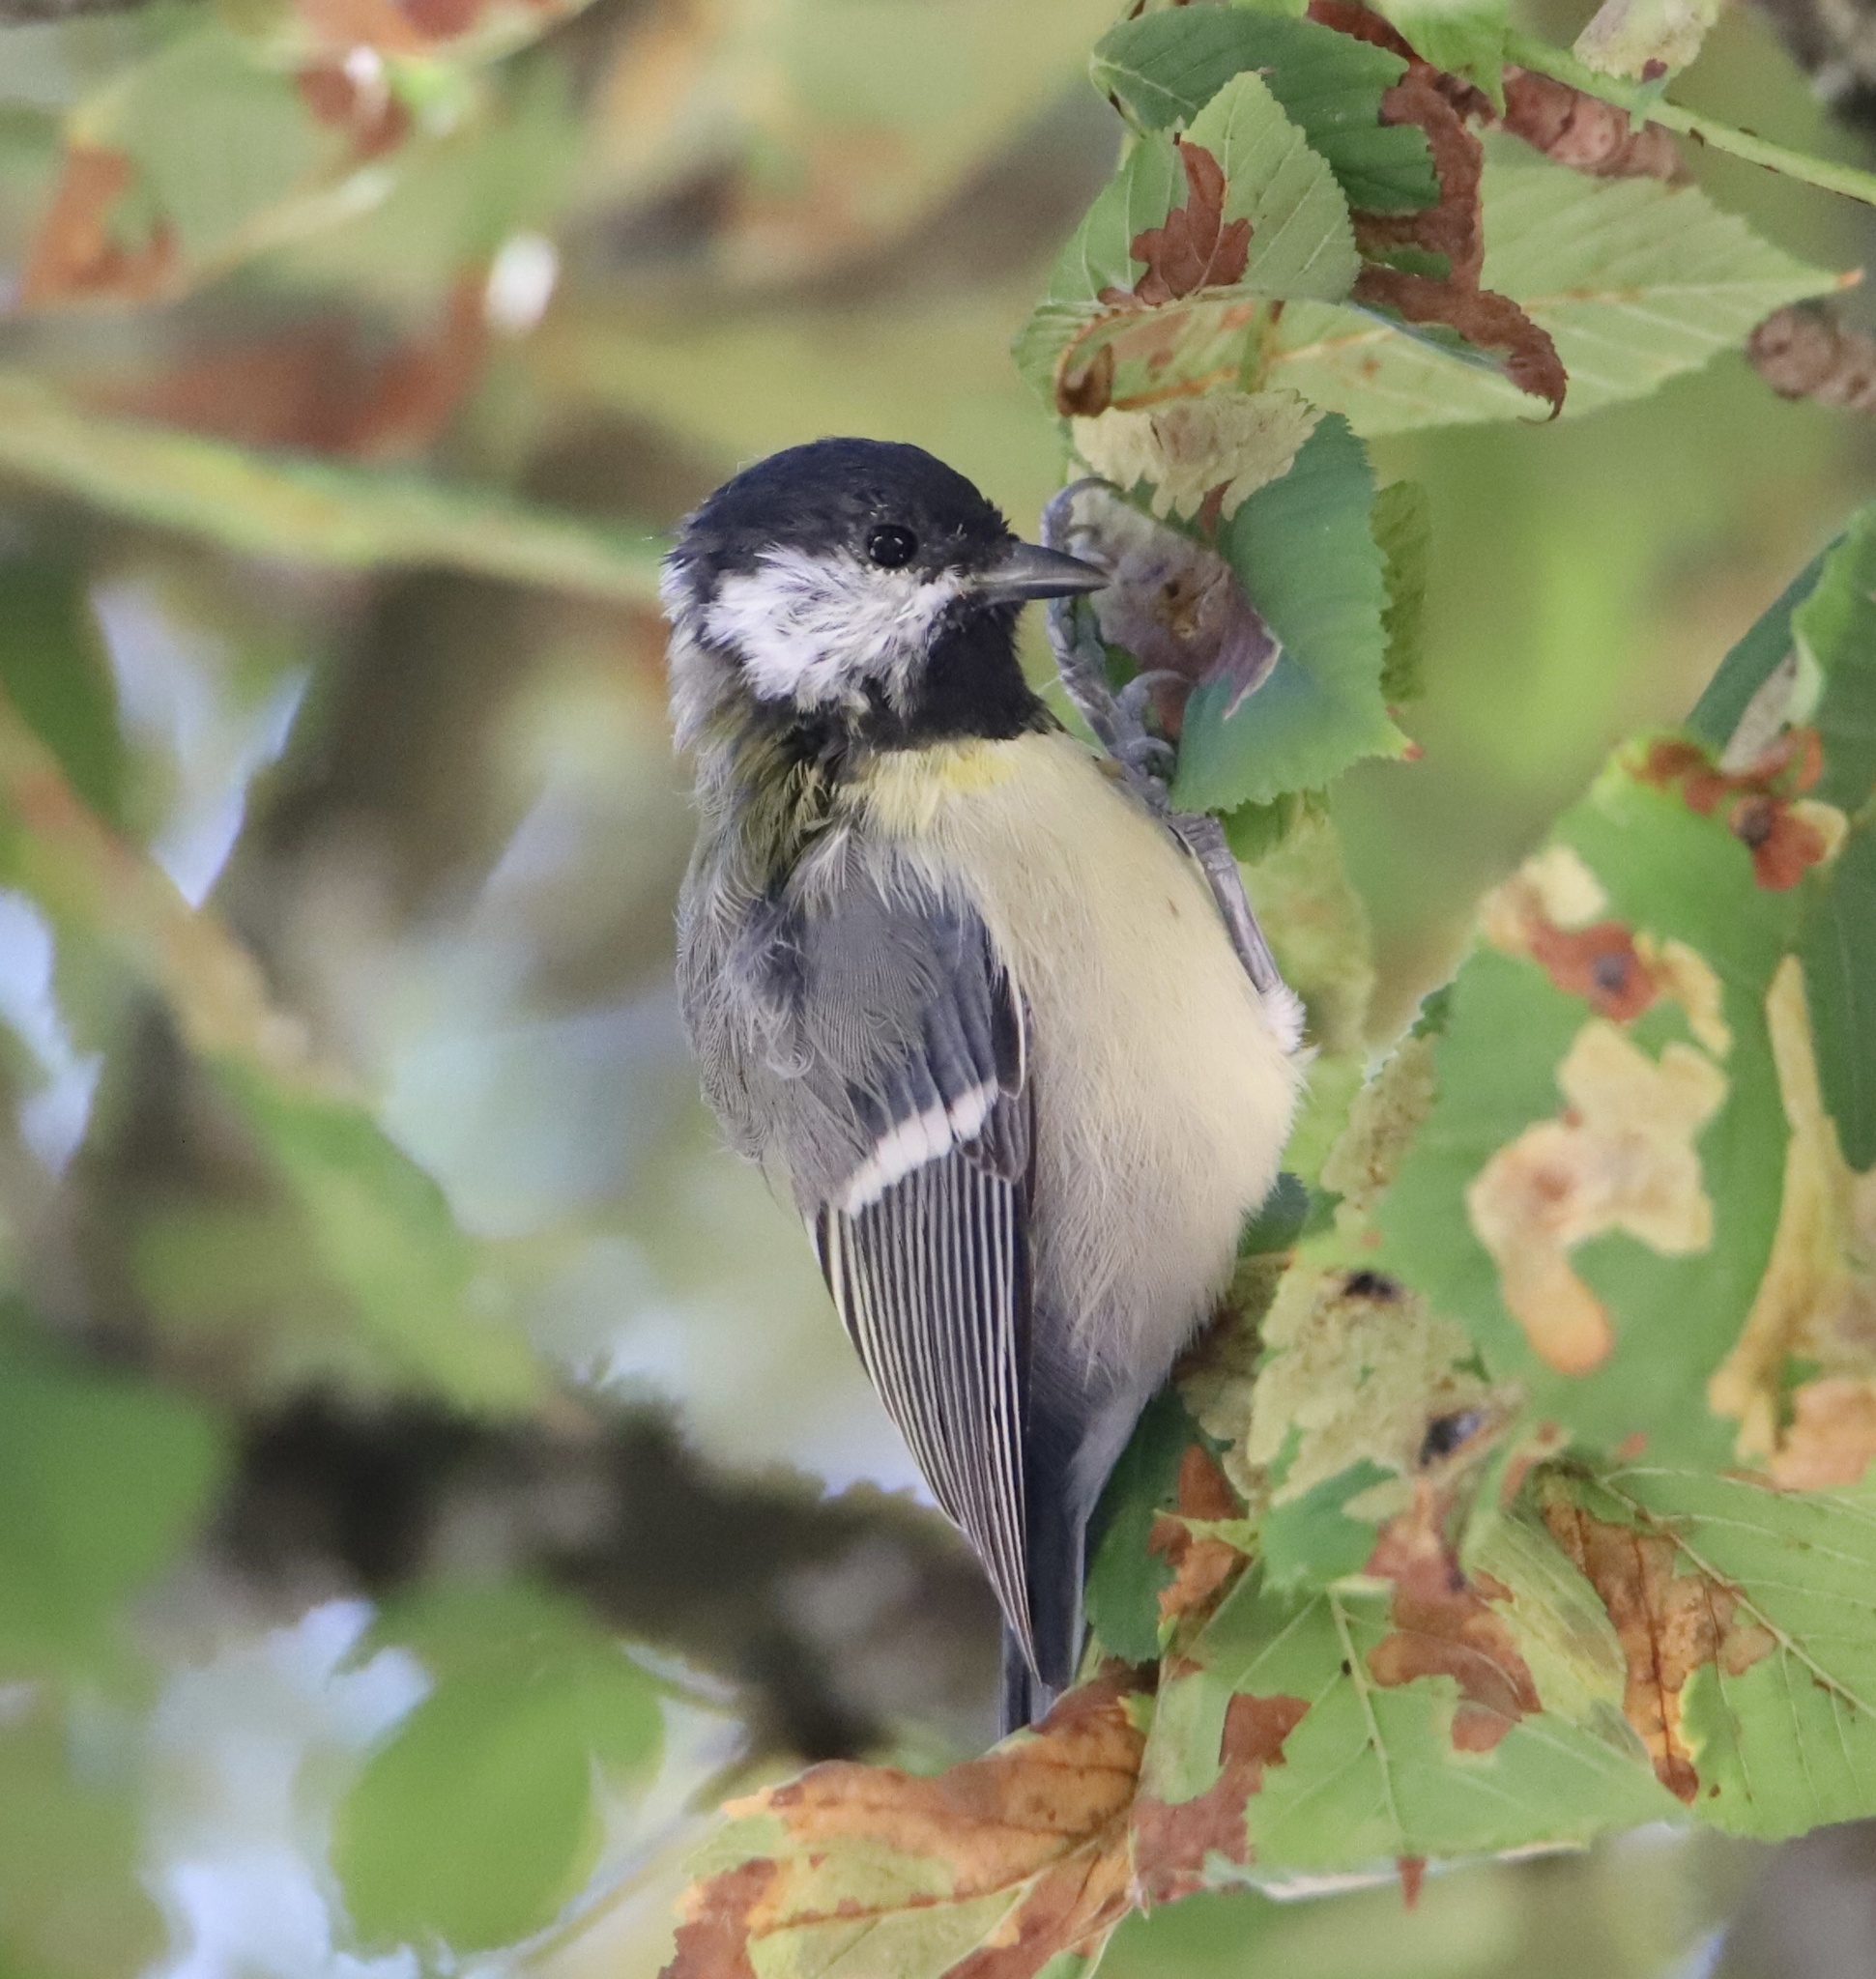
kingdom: Animalia
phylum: Chordata
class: Aves
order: Passeriformes
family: Paridae
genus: Parus
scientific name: Parus major
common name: Great tit
